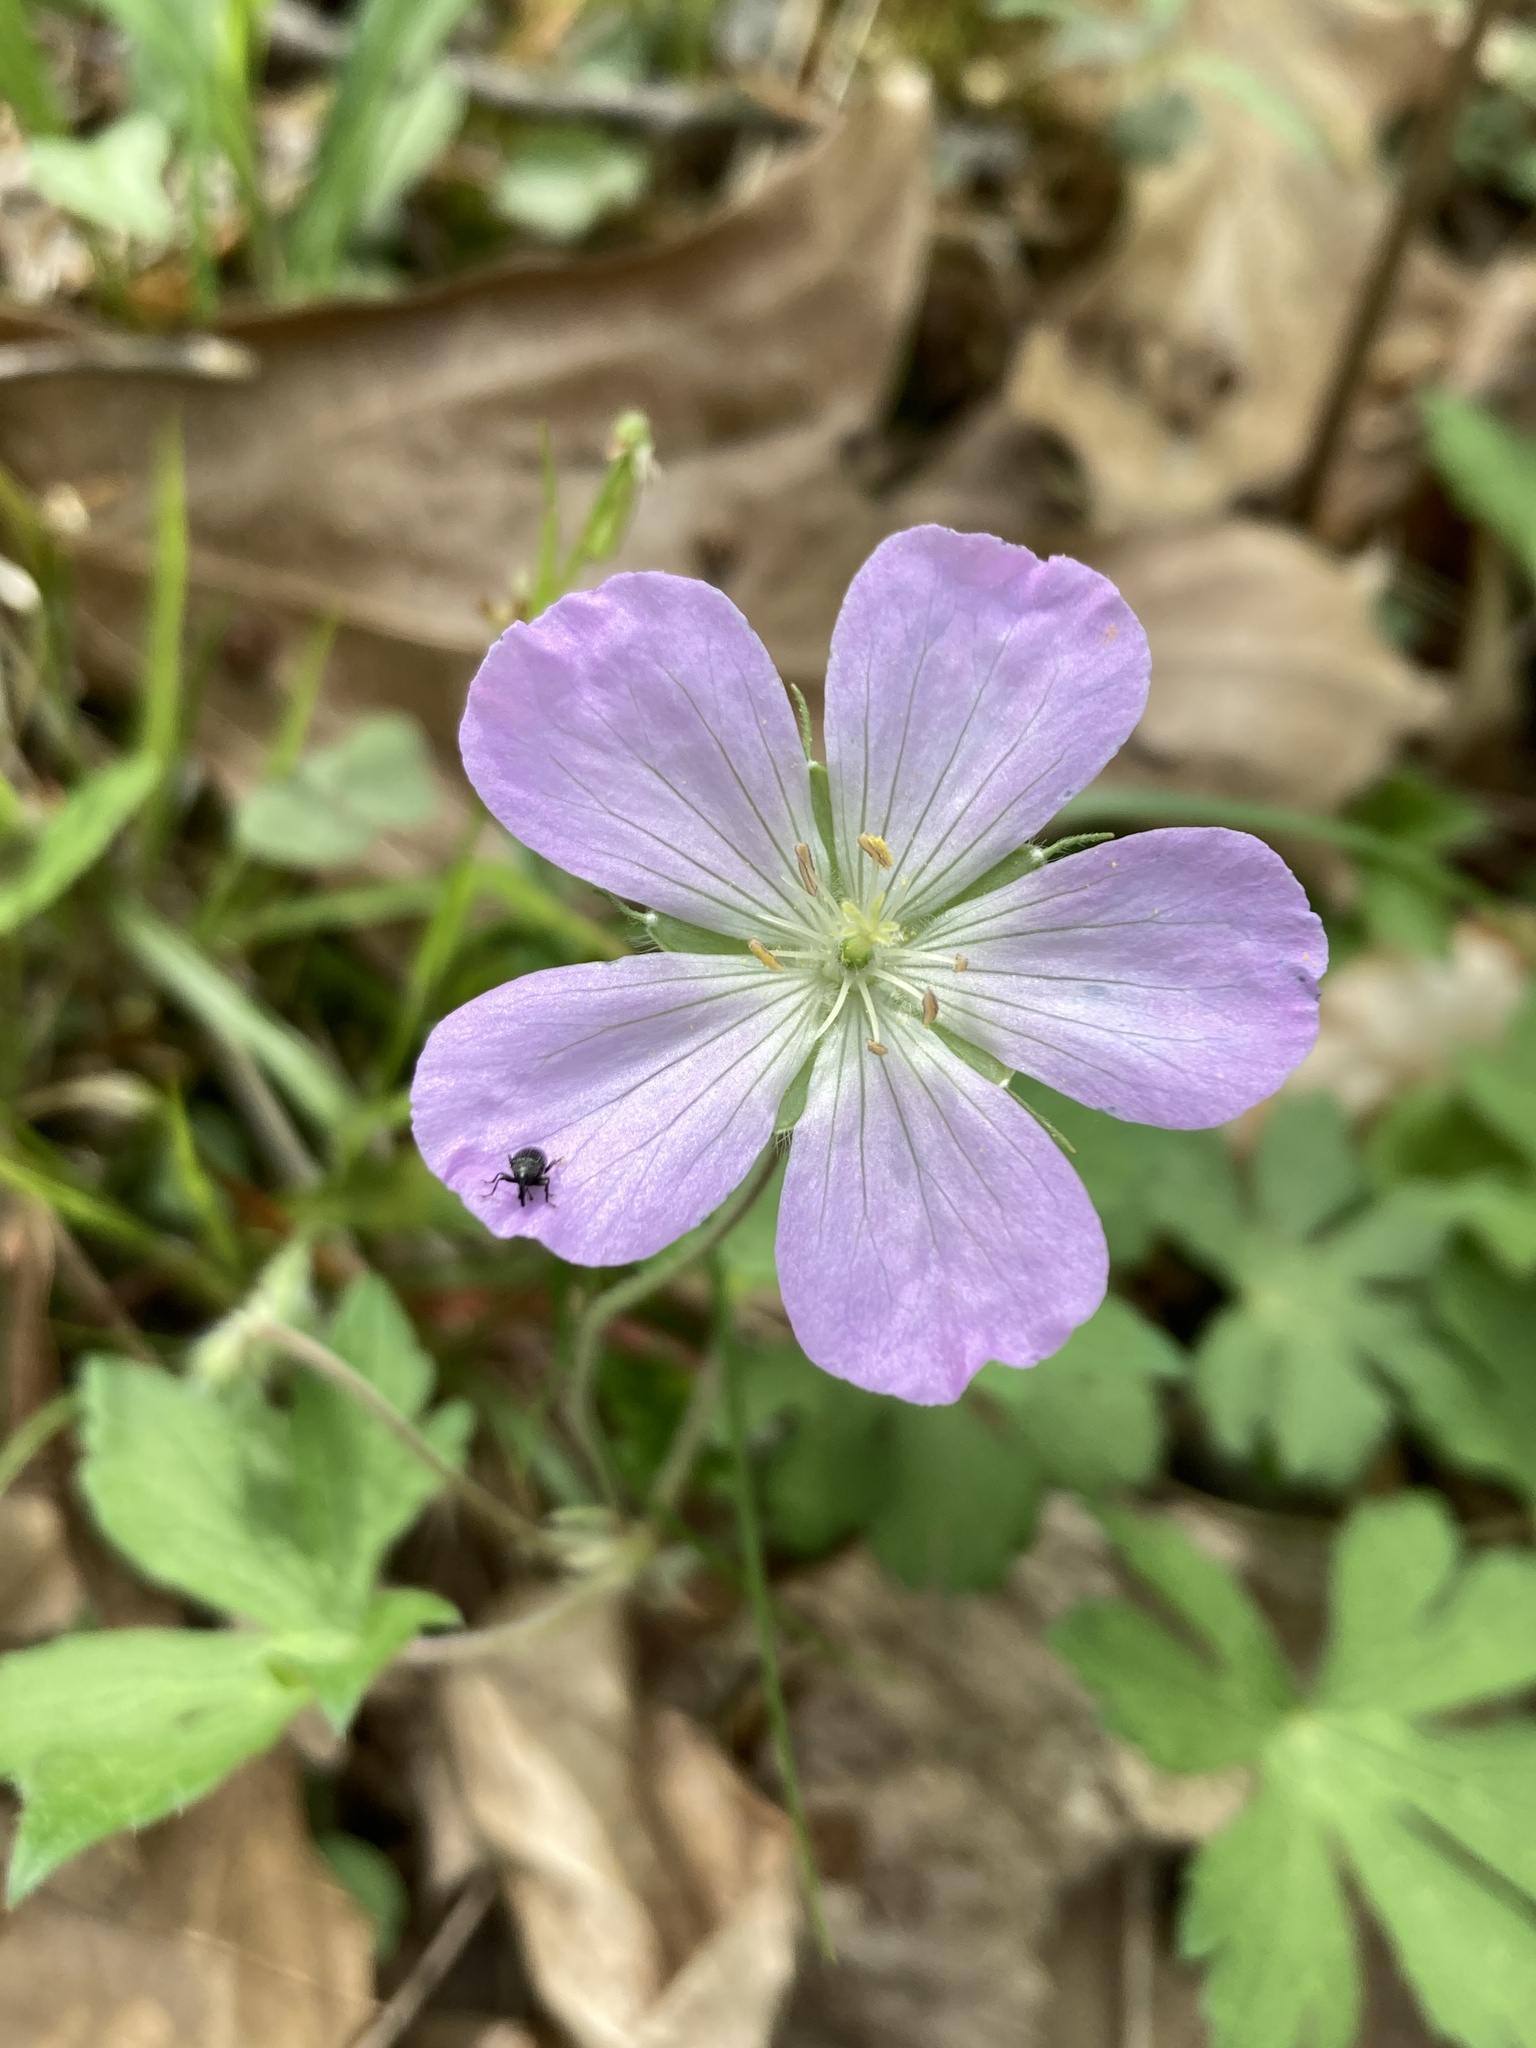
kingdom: Plantae
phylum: Tracheophyta
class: Magnoliopsida
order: Geraniales
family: Geraniaceae
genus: Geranium
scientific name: Geranium maculatum
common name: Spotted geranium
